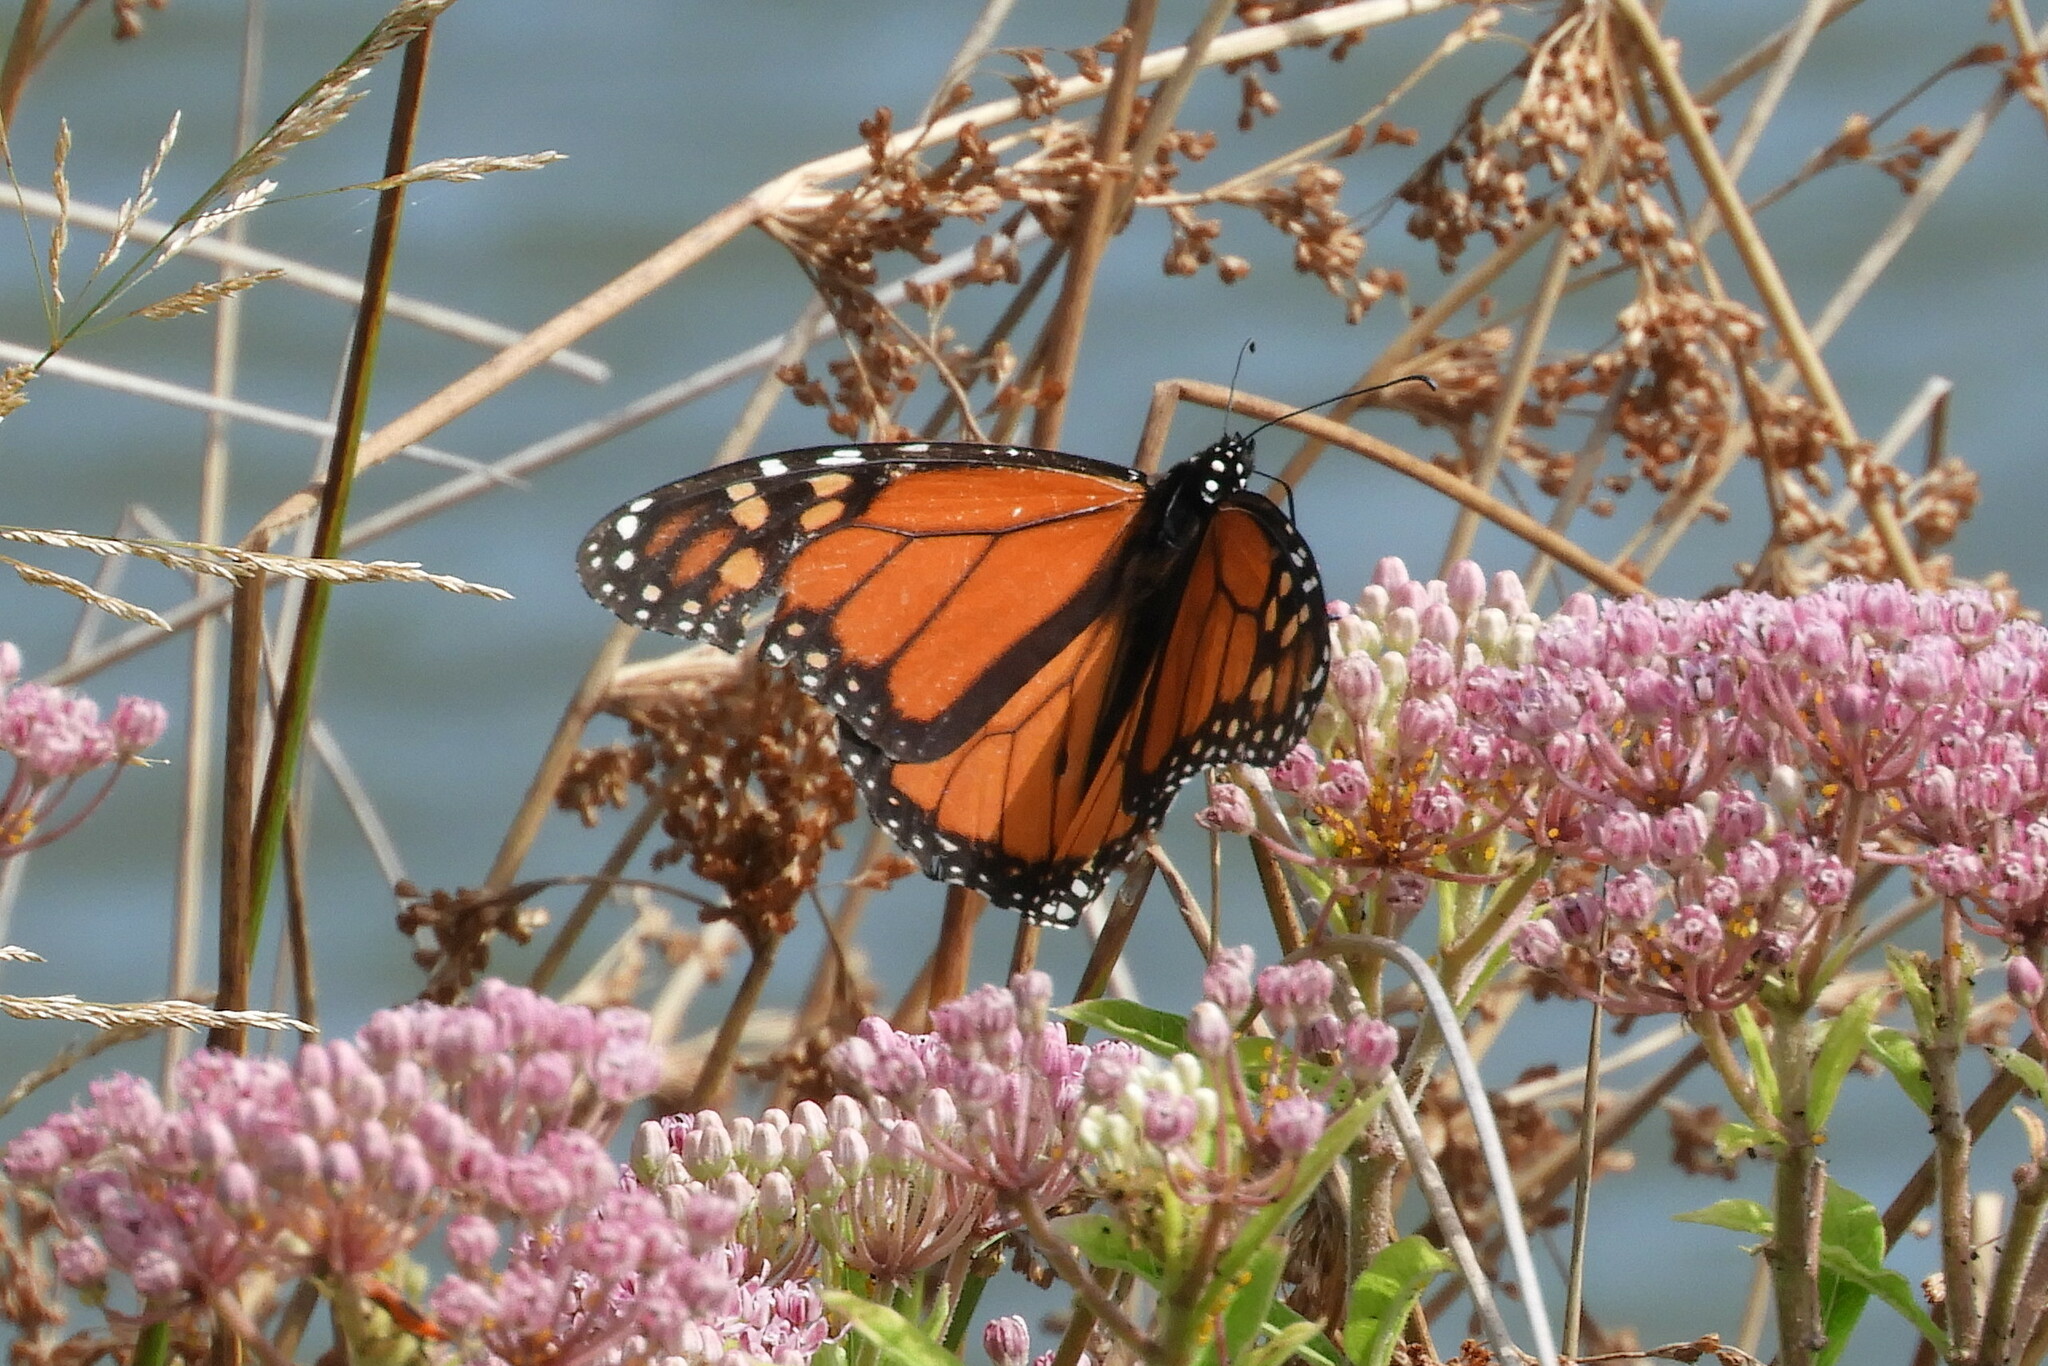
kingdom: Animalia
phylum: Arthropoda
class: Insecta
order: Lepidoptera
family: Nymphalidae
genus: Danaus
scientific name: Danaus plexippus
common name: Monarch
